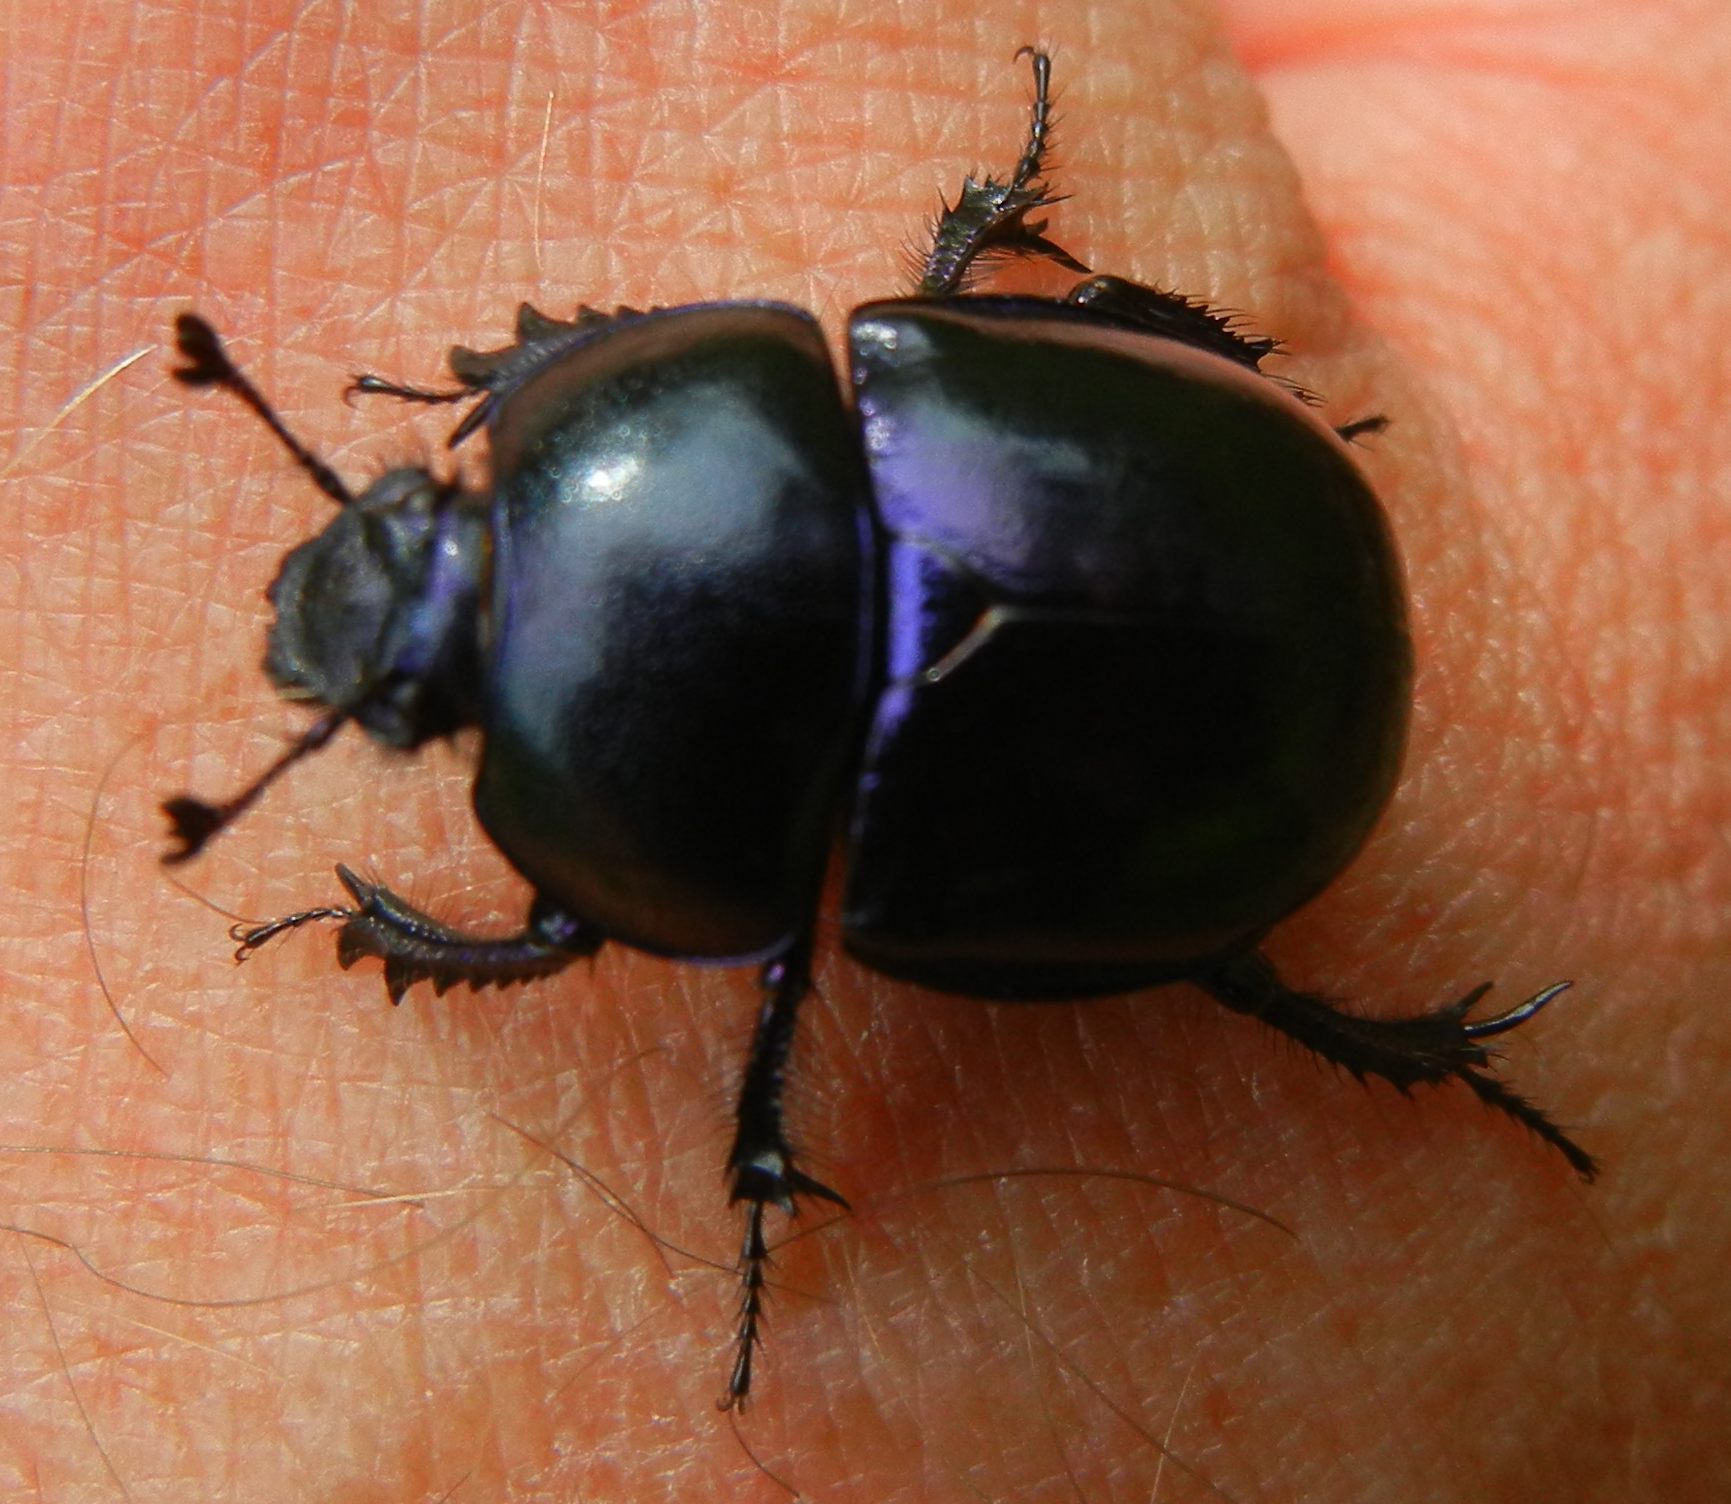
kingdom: Animalia
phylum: Arthropoda
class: Insecta
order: Coleoptera
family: Geotrupidae
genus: Trypocopris
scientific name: Trypocopris vernalis
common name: Spring dumbledor
